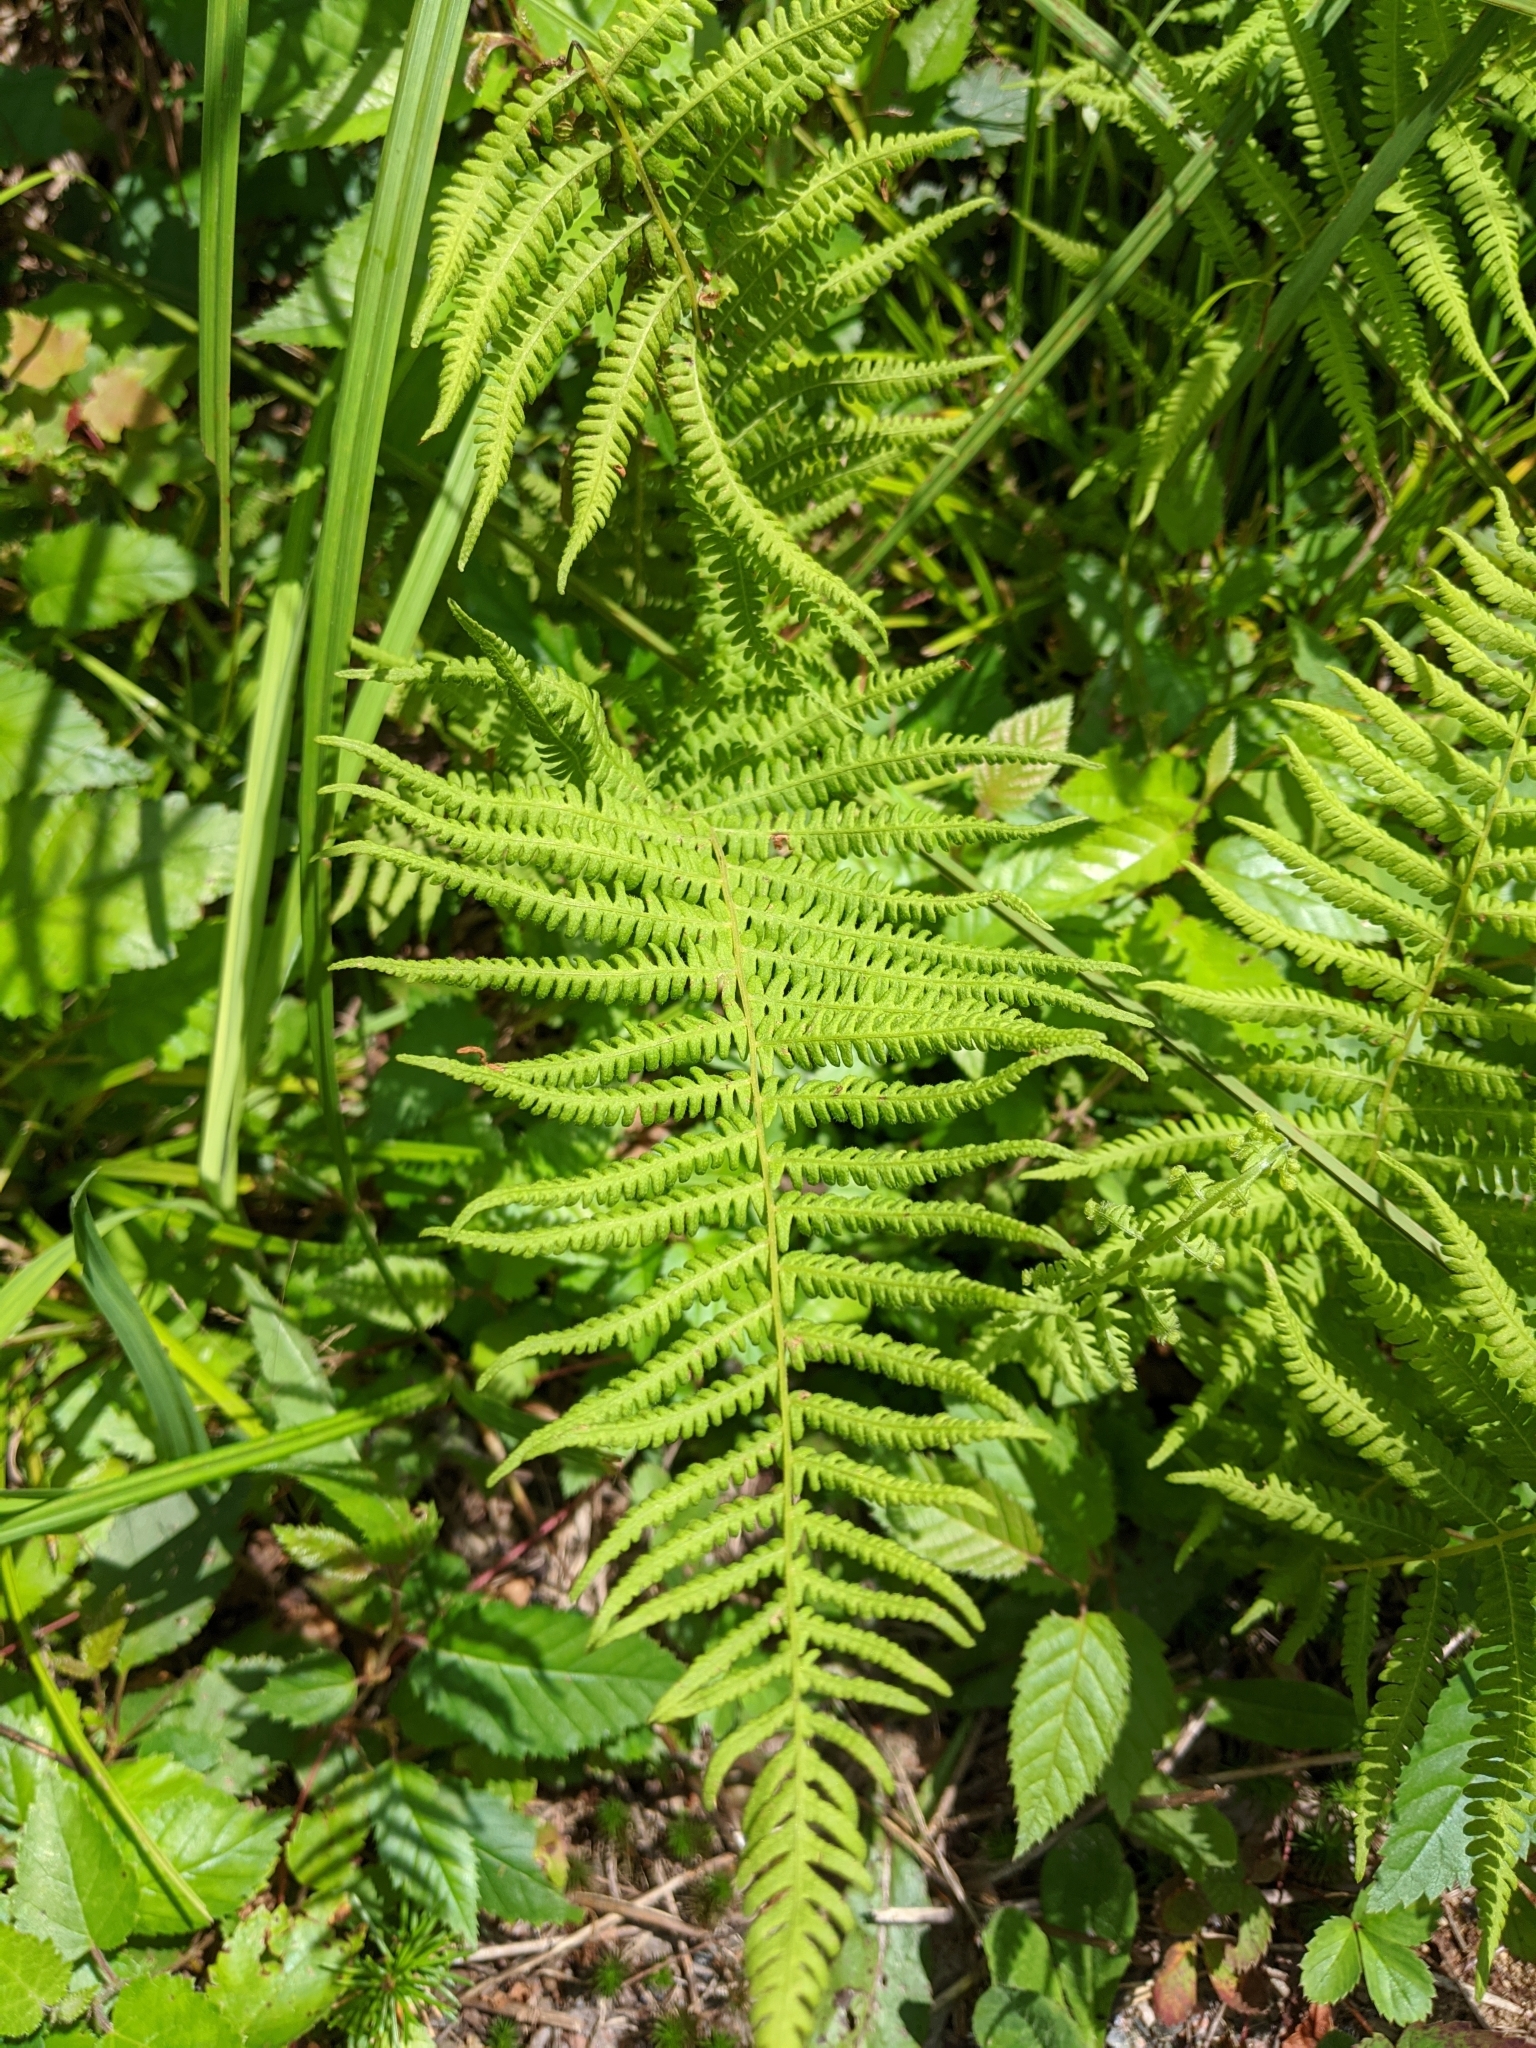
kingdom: Plantae
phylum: Tracheophyta
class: Polypodiopsida
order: Polypodiales
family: Thelypteridaceae
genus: Thelypteris
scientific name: Thelypteris palustris
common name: Marsh fern
